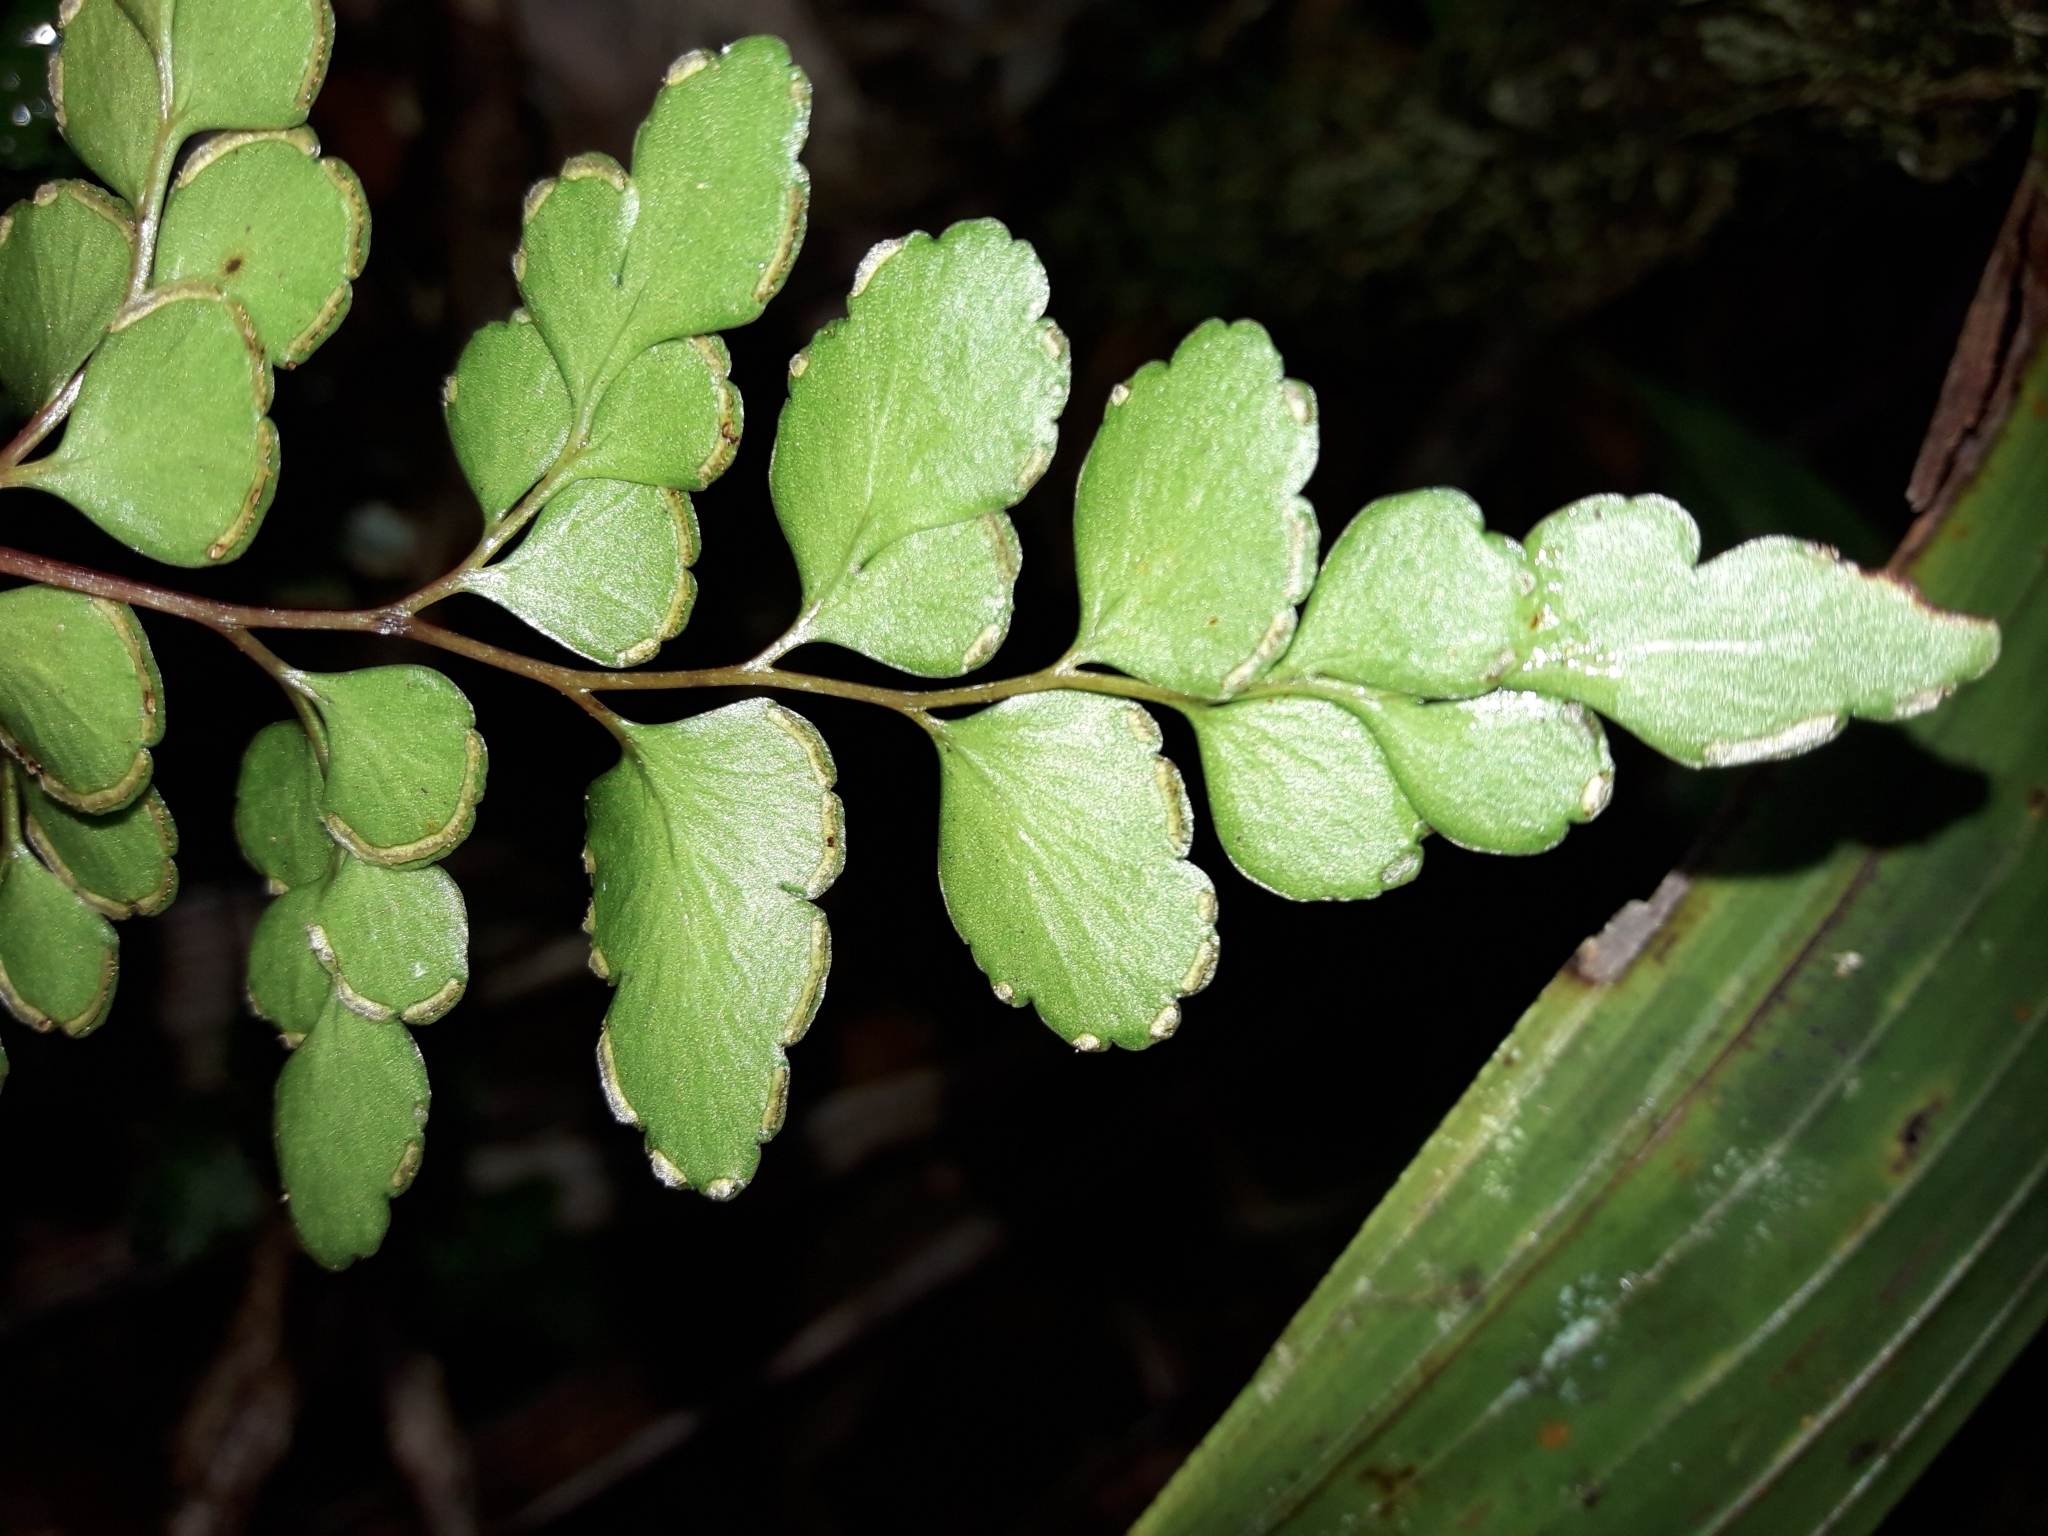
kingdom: Plantae
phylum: Tracheophyta
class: Polypodiopsida
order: Polypodiales
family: Lindsaeaceae
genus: Lindsaea
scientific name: Lindsaea rufa
